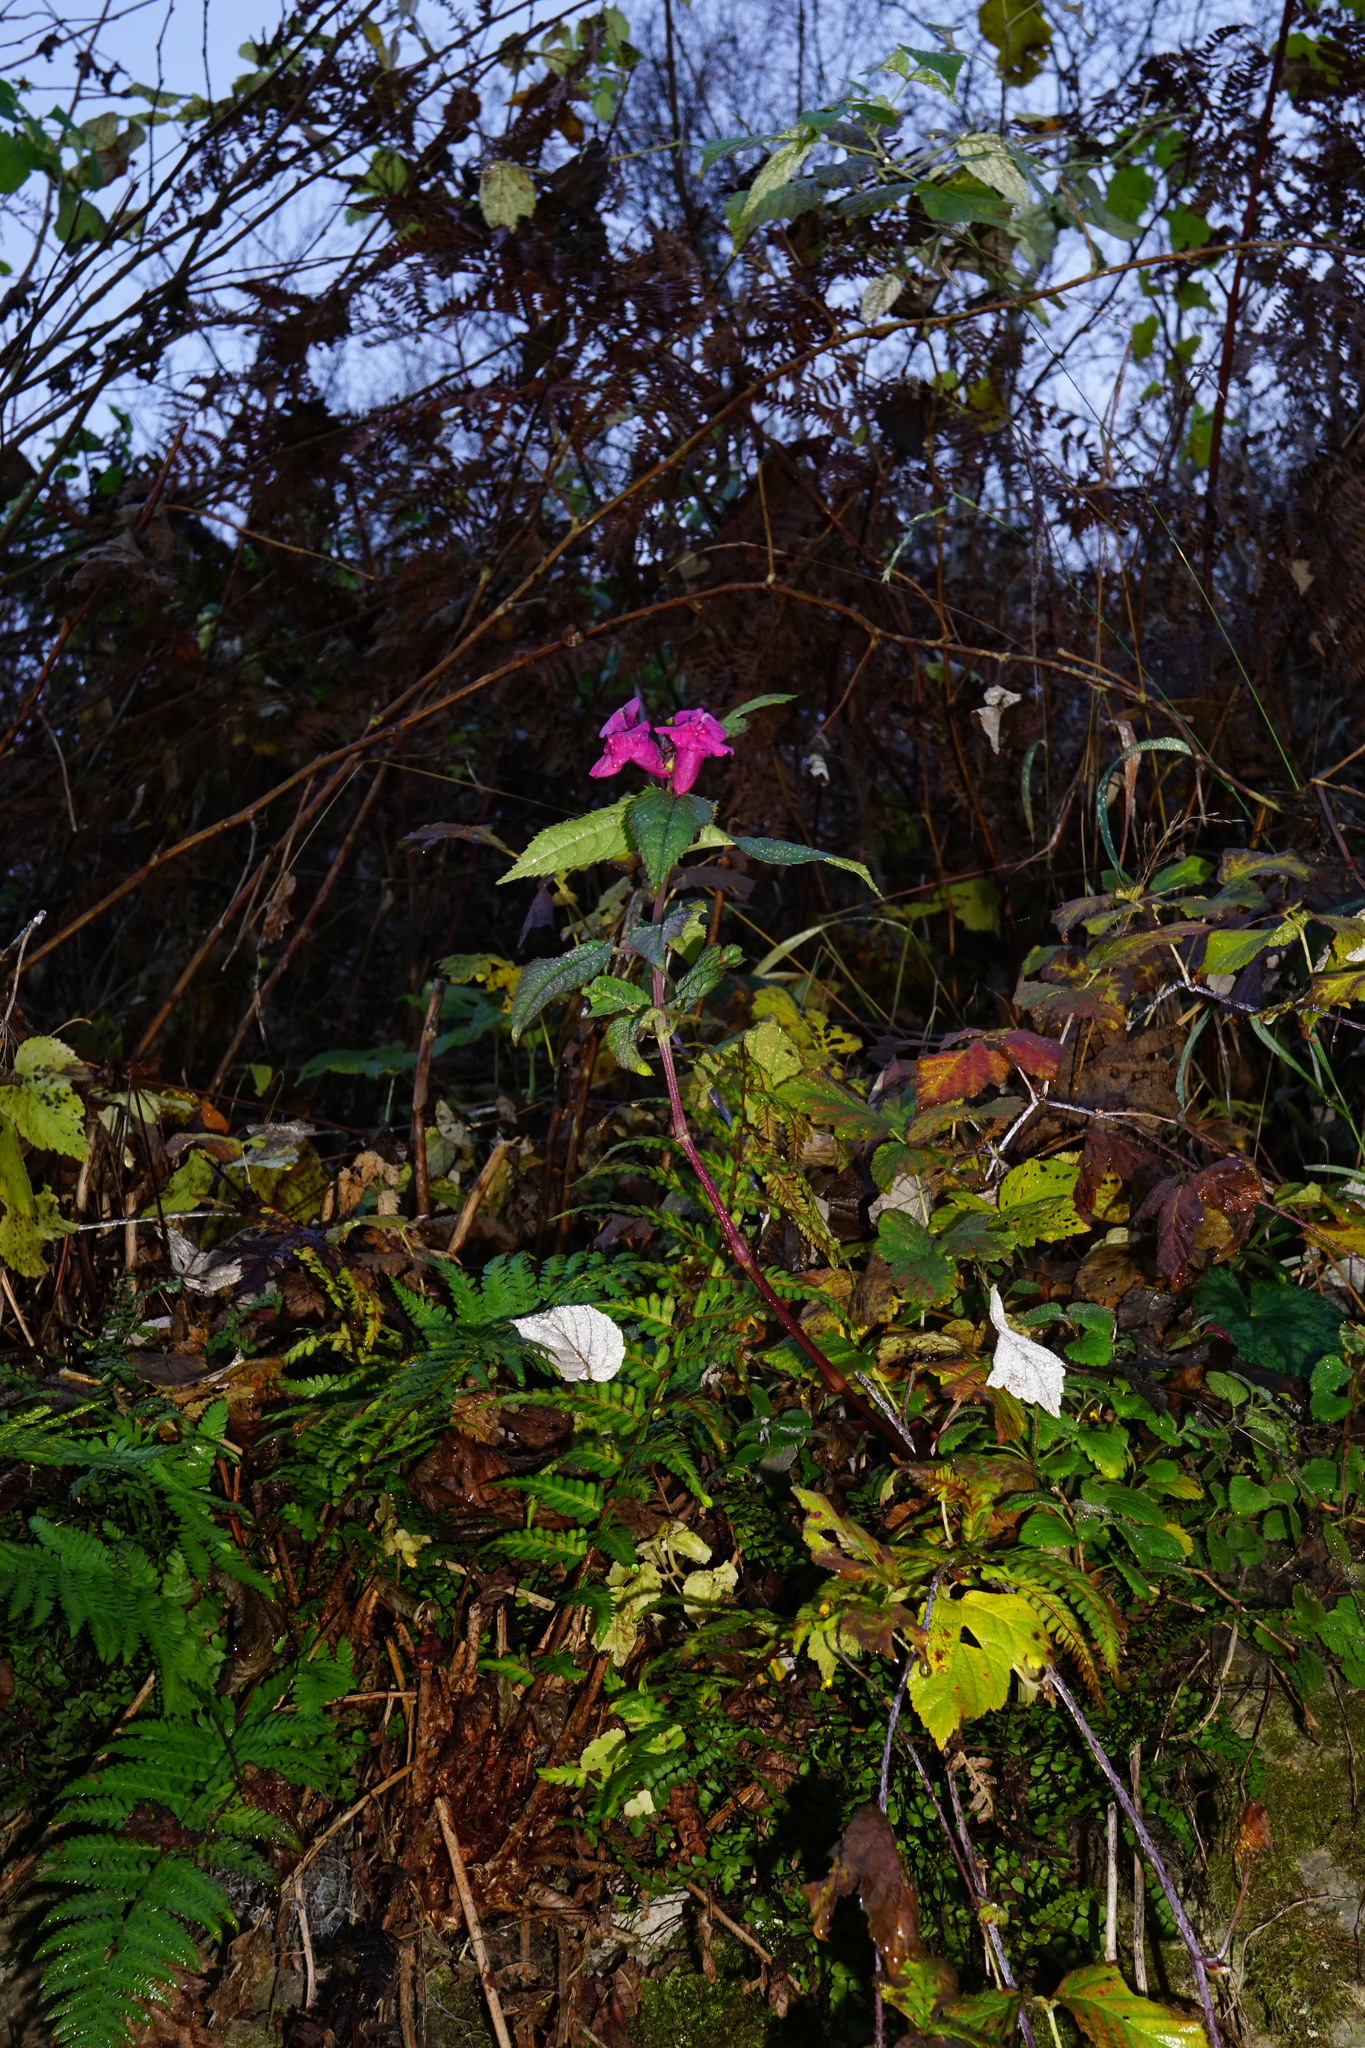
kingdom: Plantae
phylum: Tracheophyta
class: Magnoliopsida
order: Ericales
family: Balsaminaceae
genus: Impatiens
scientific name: Impatiens glandulifera
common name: Himalayan balsam
